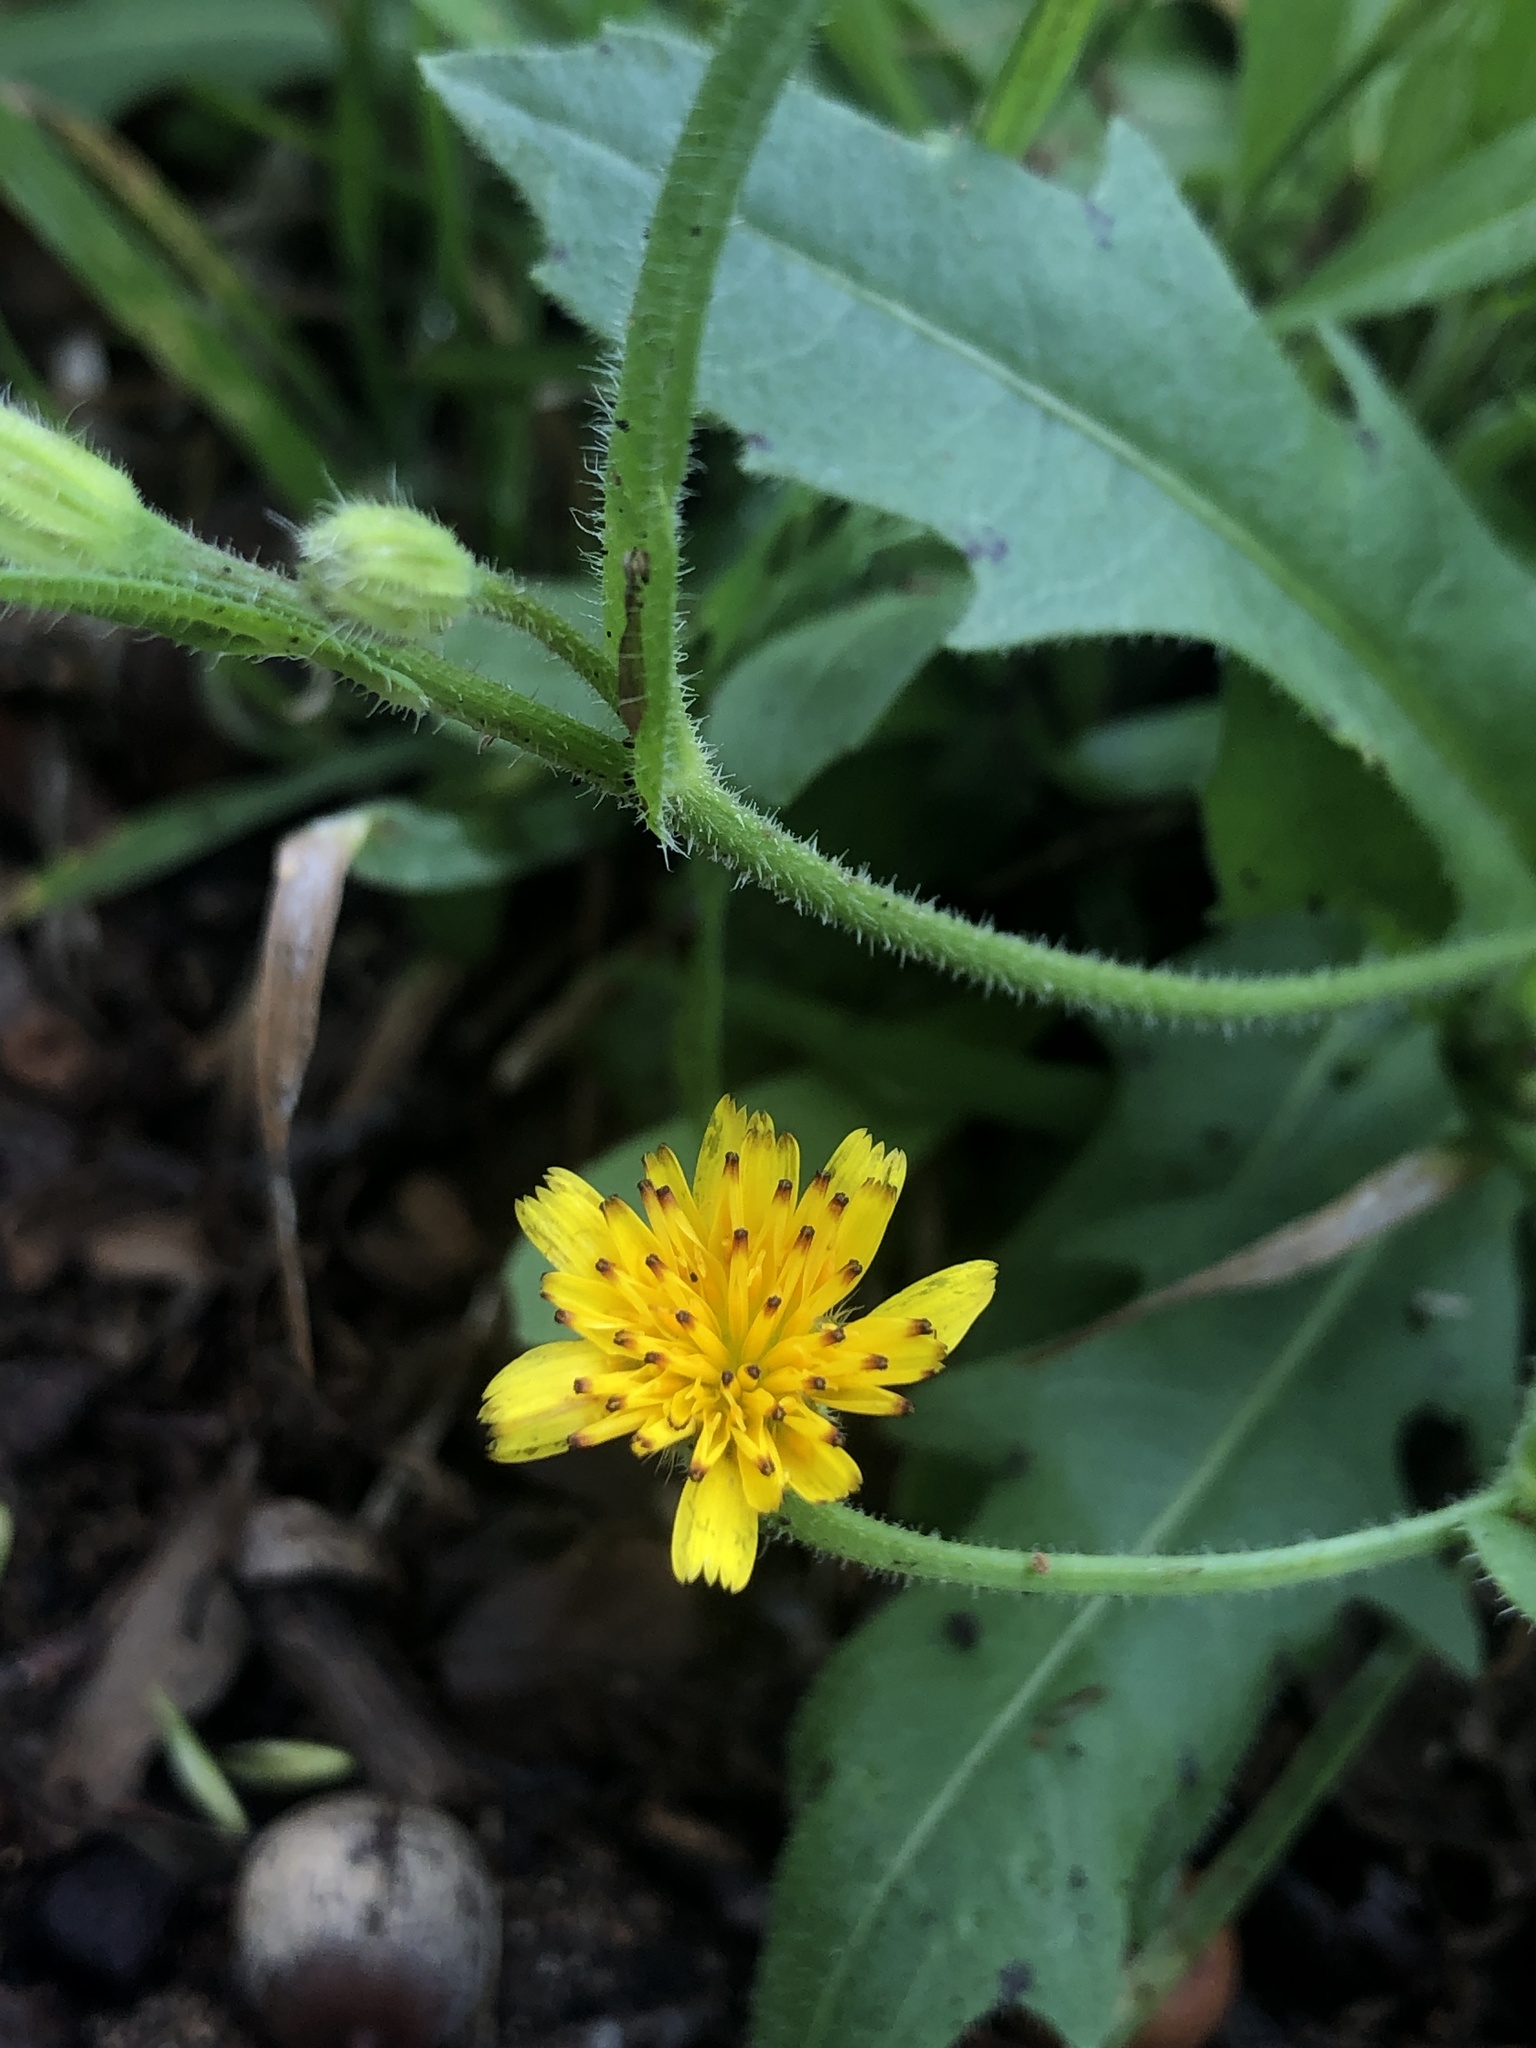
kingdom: Plantae
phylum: Tracheophyta
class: Magnoliopsida
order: Asterales
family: Asteraceae
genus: Hedypnois
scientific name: Hedypnois rhagadioloides
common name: Cretan weed
